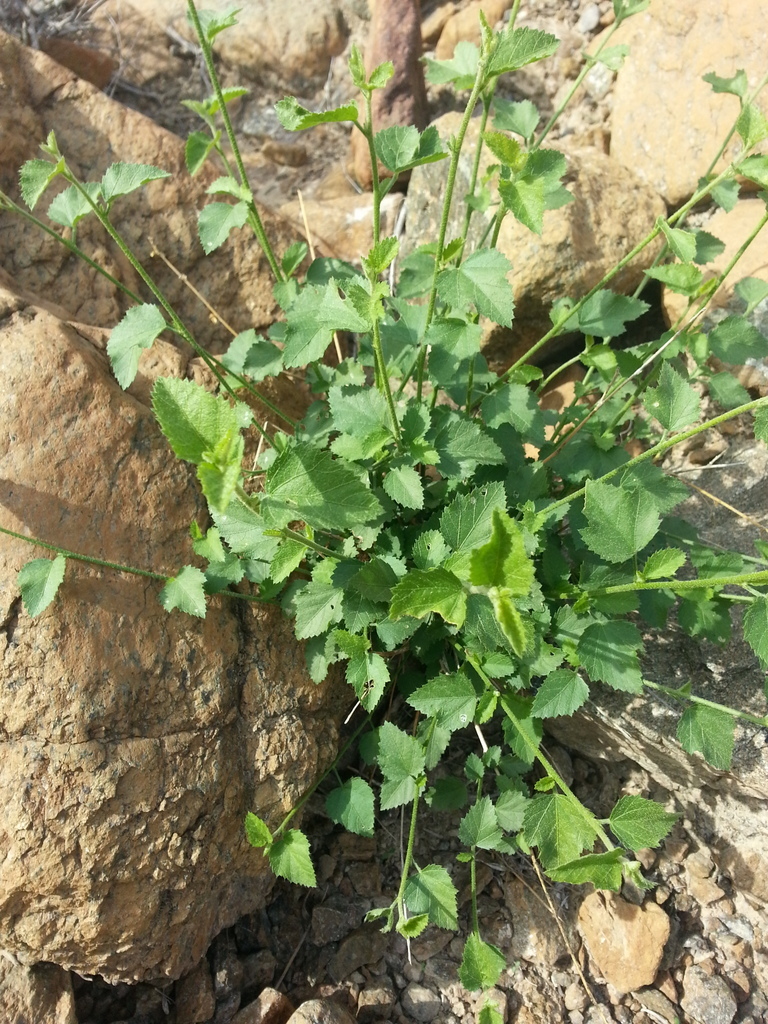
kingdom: Plantae
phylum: Tracheophyta
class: Magnoliopsida
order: Malvales
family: Malvaceae
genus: Hibiscus
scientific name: Hibiscus micranthus
